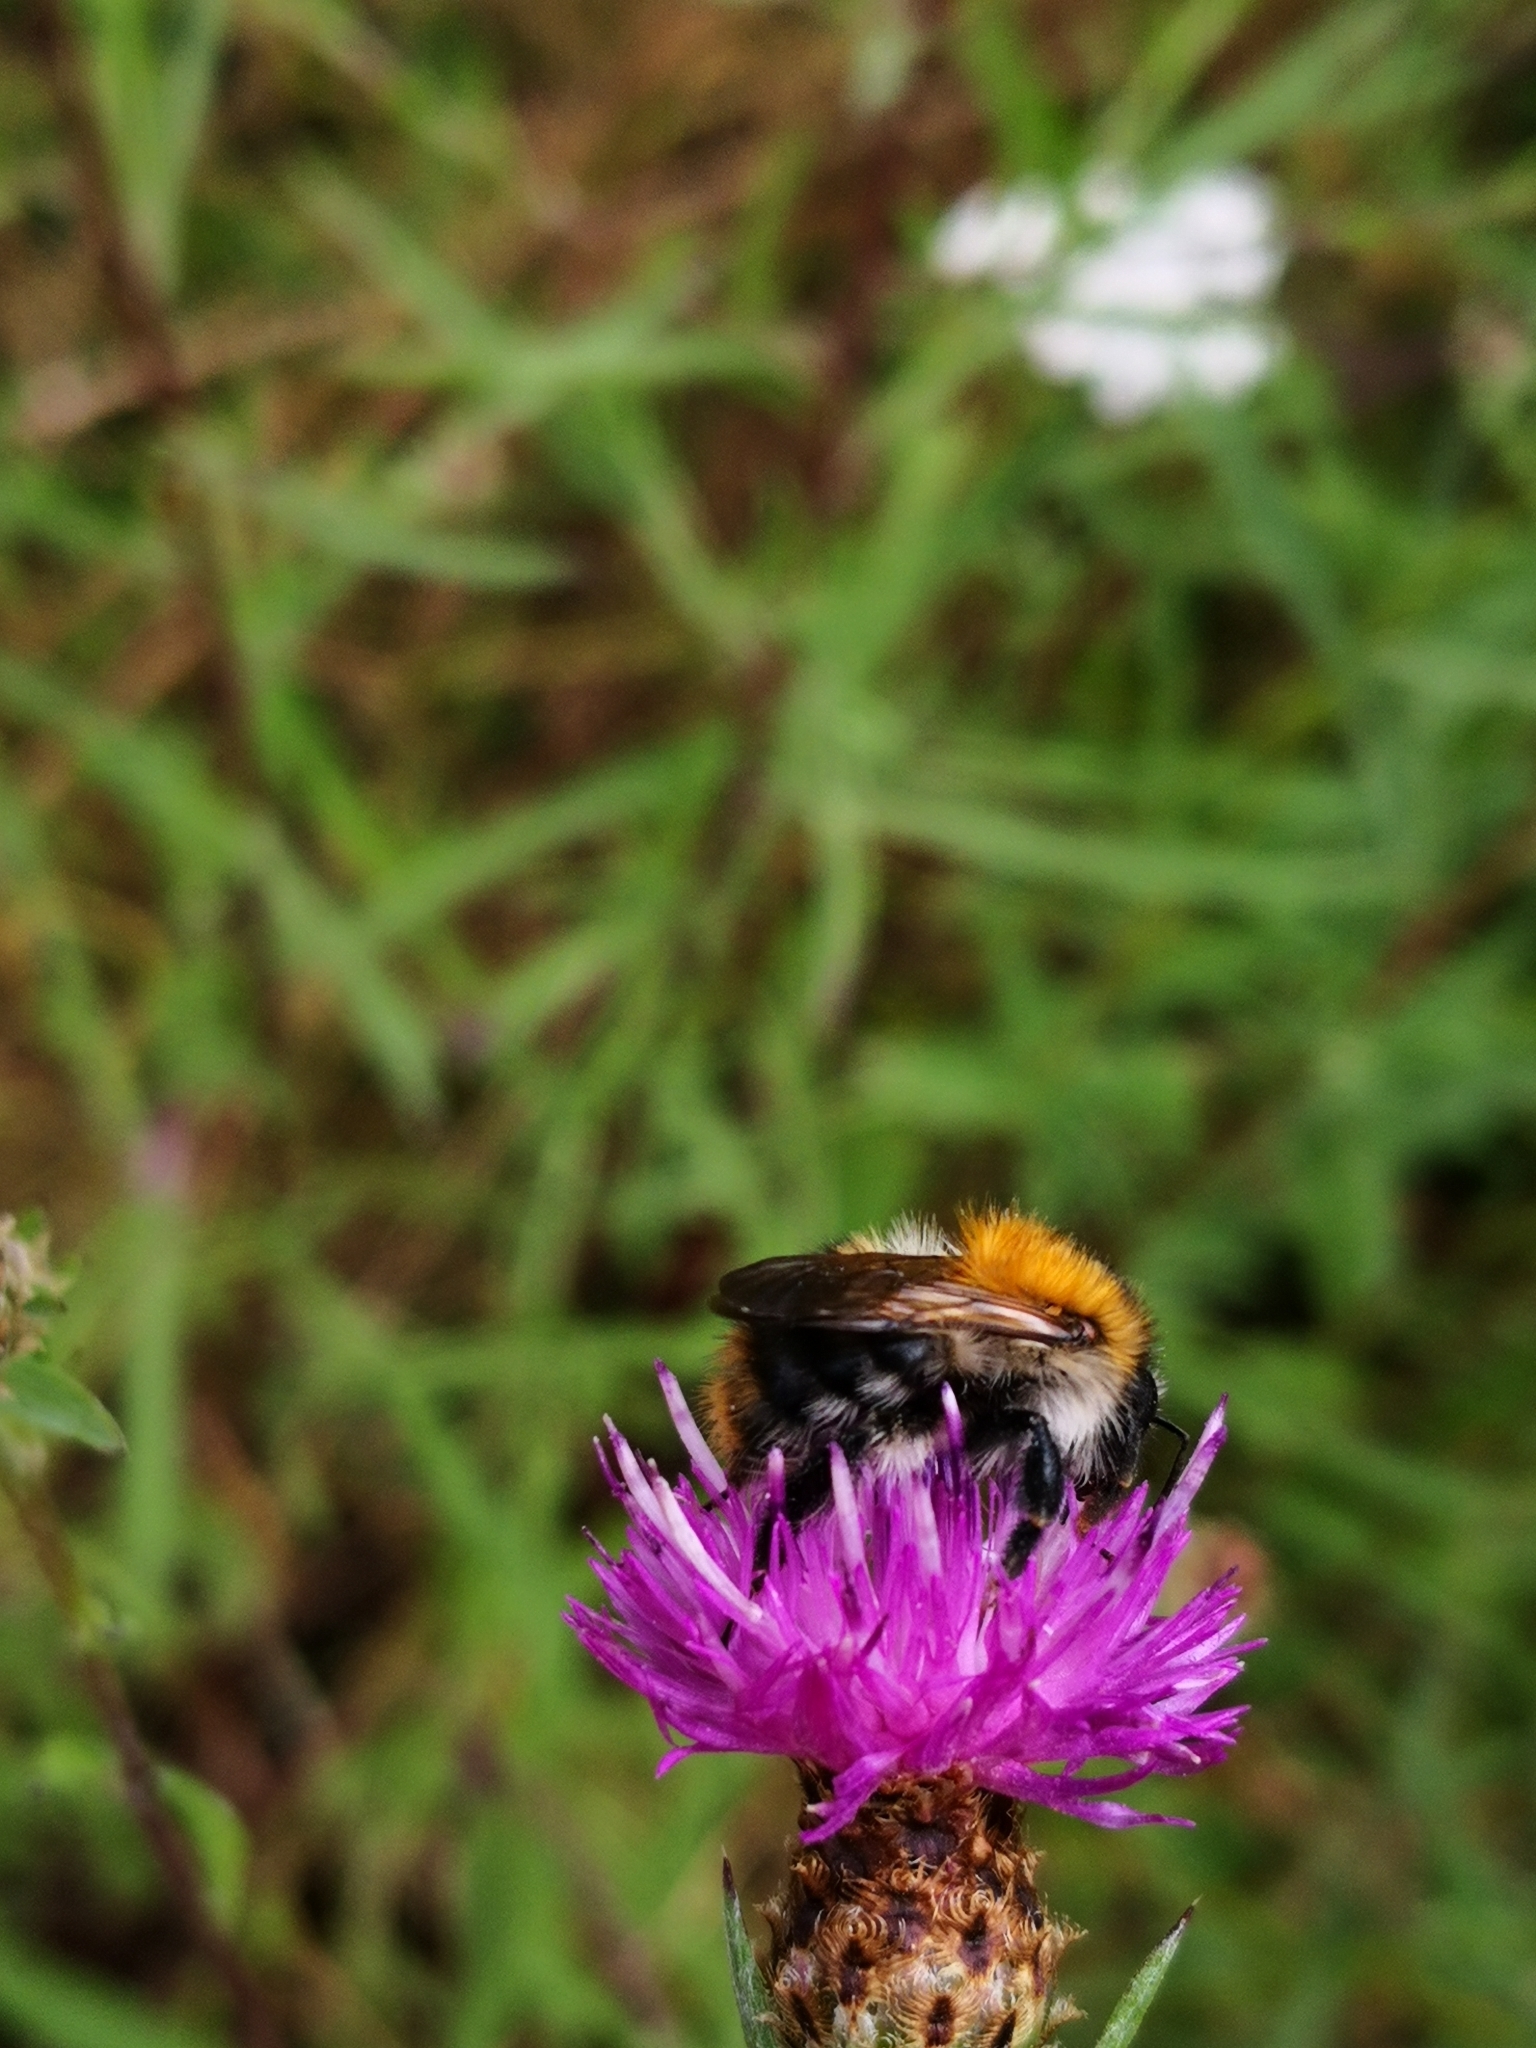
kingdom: Animalia
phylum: Arthropoda
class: Insecta
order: Hymenoptera
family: Apidae
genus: Bombus
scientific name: Bombus pascuorum
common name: Common carder bee
